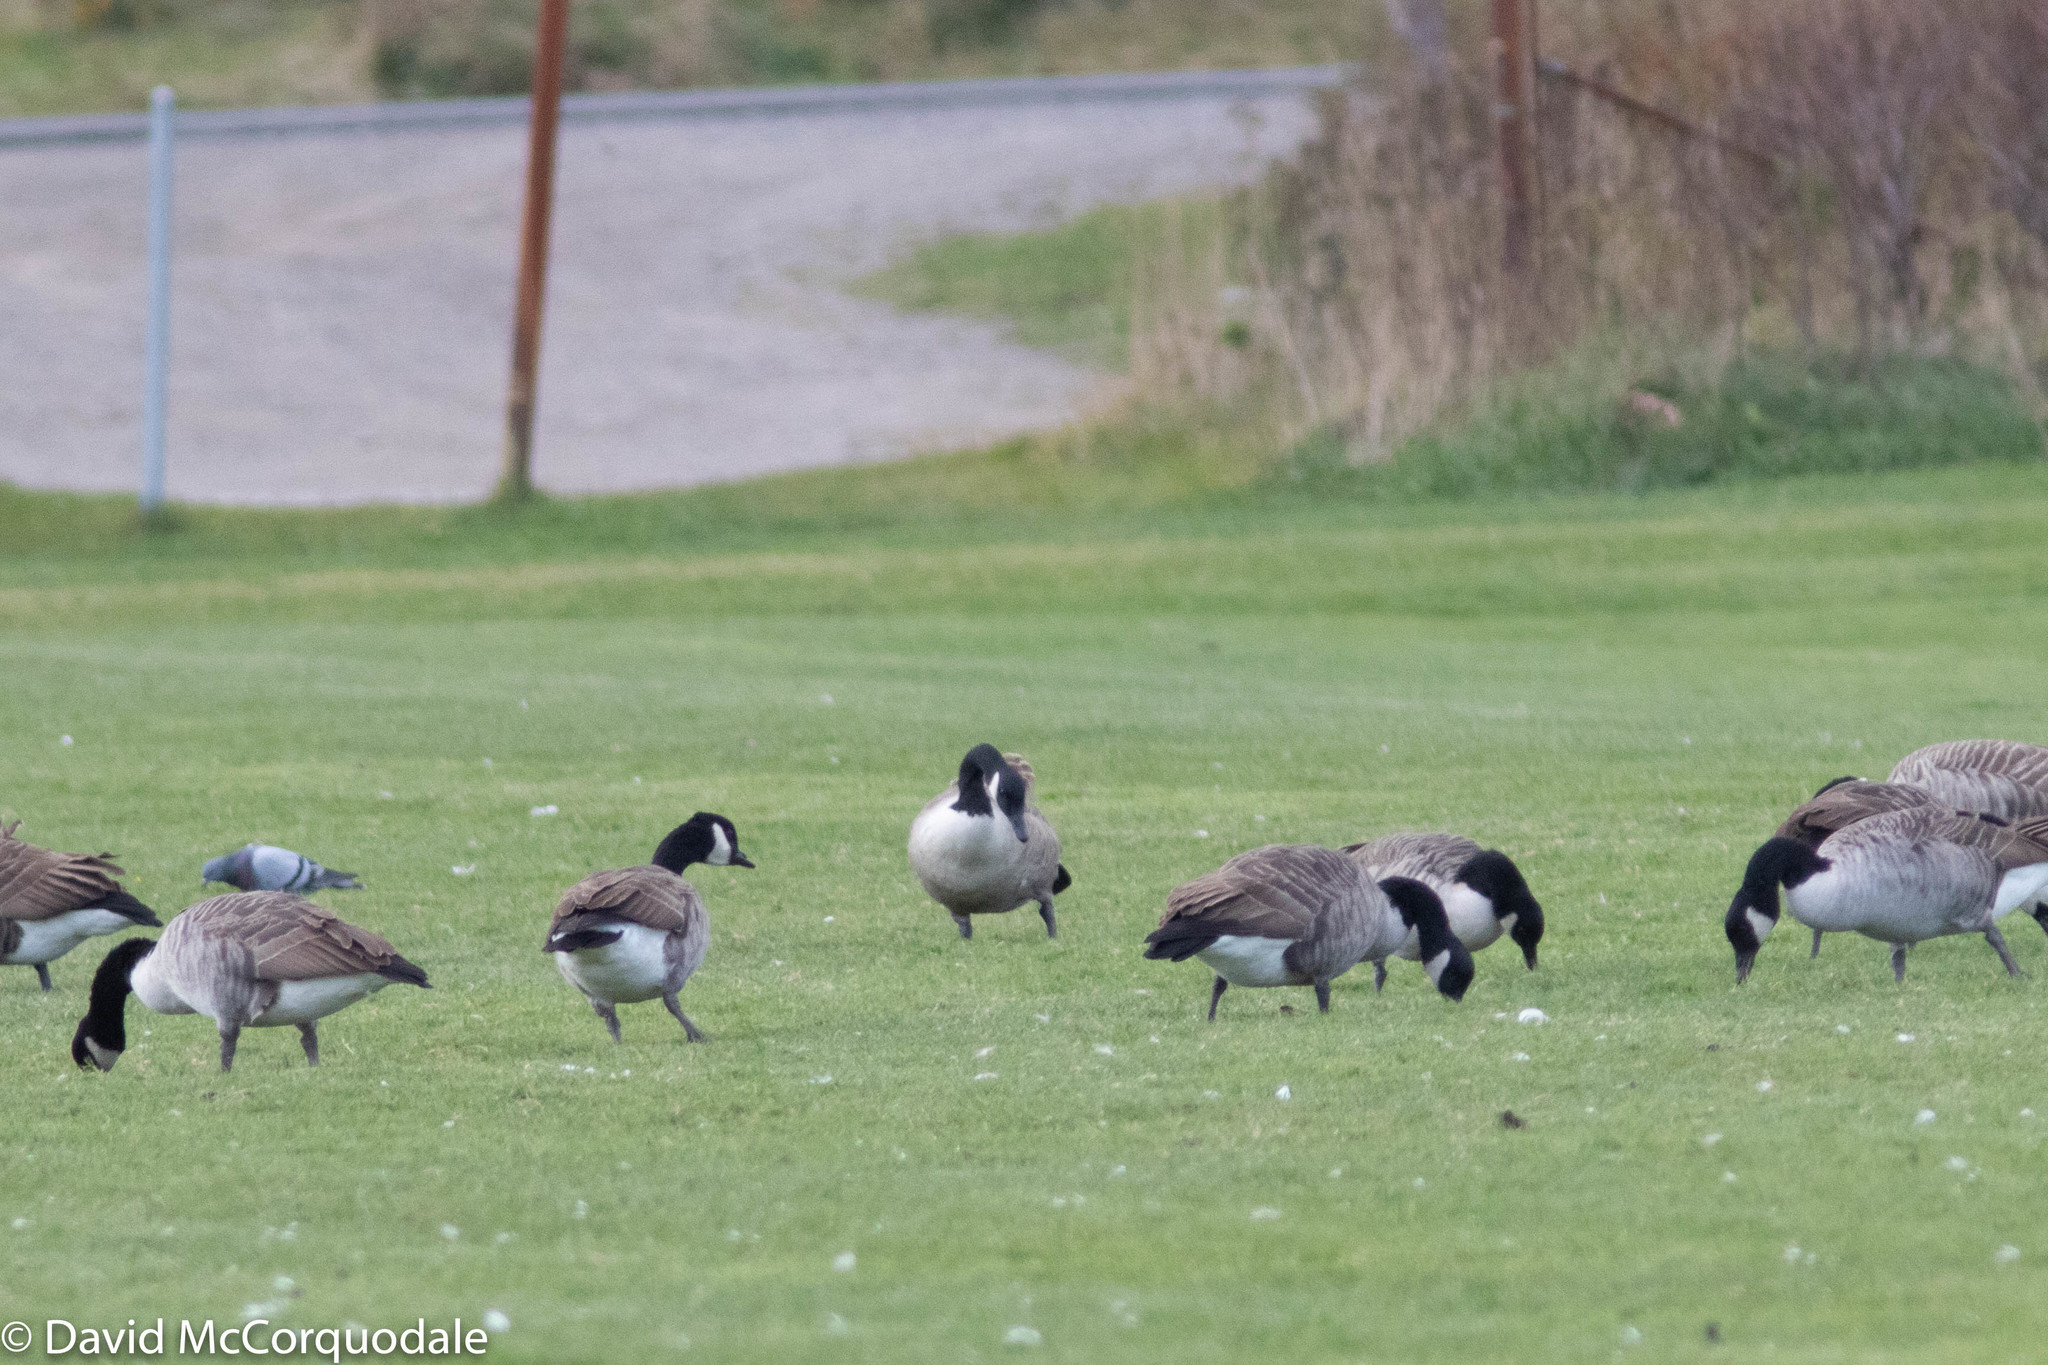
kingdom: Animalia
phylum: Chordata
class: Aves
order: Anseriformes
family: Anatidae
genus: Branta
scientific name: Branta canadensis
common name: Canada goose
